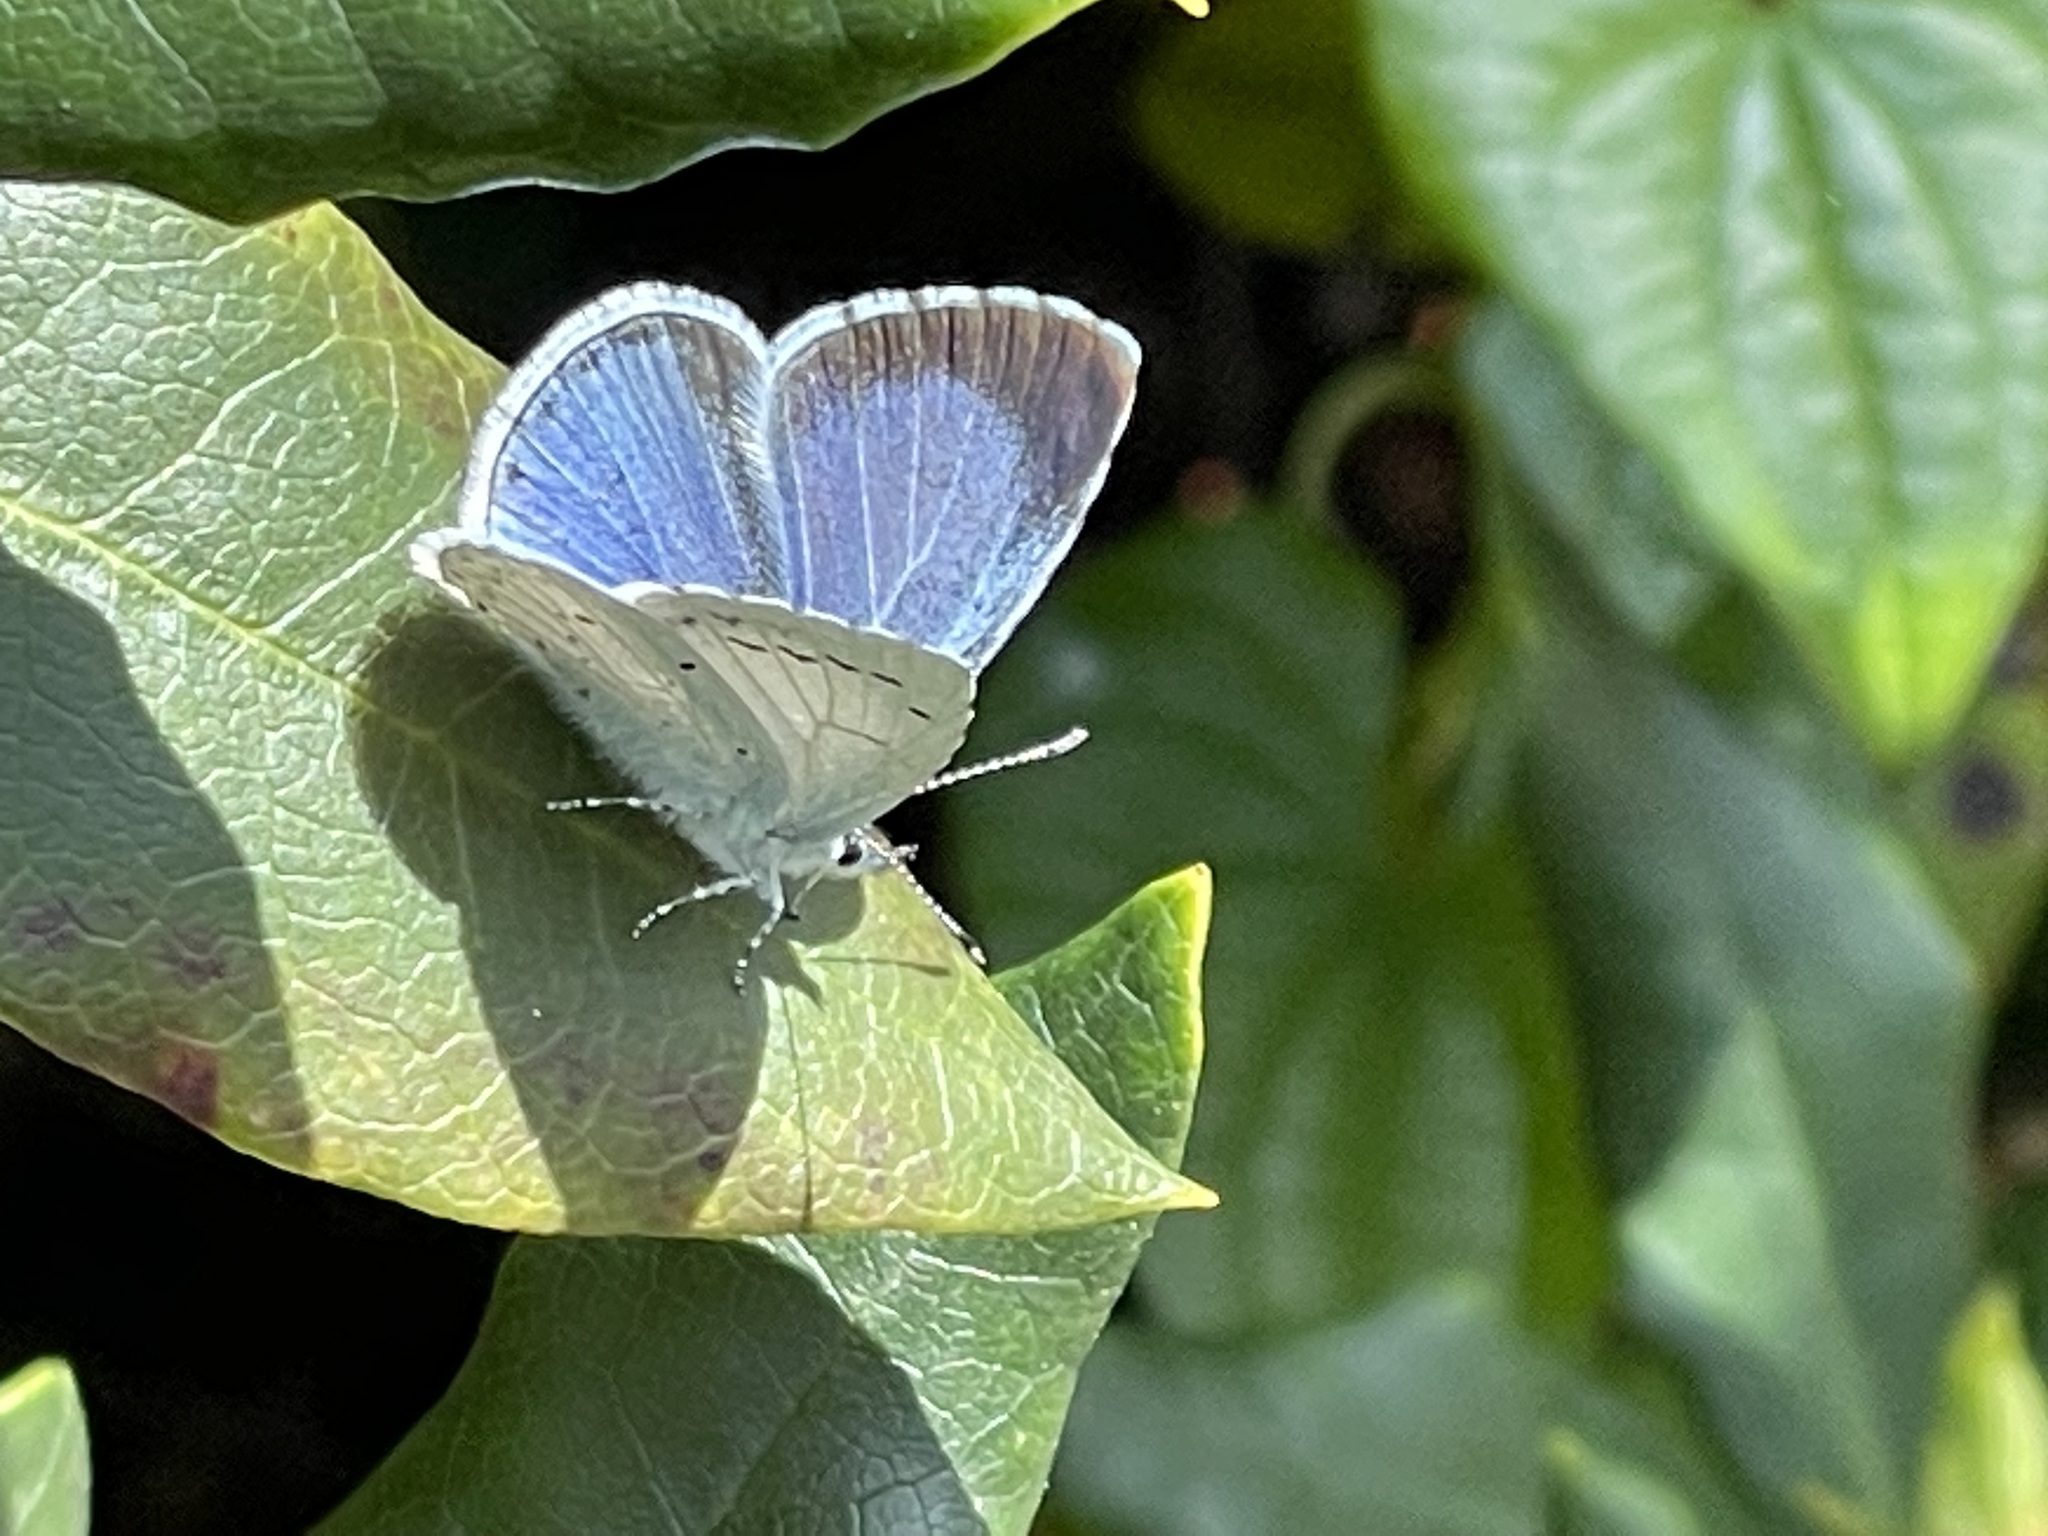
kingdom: Animalia
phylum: Arthropoda
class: Insecta
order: Lepidoptera
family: Lycaenidae
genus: Celastrina
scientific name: Celastrina argiolus
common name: Holly blue
